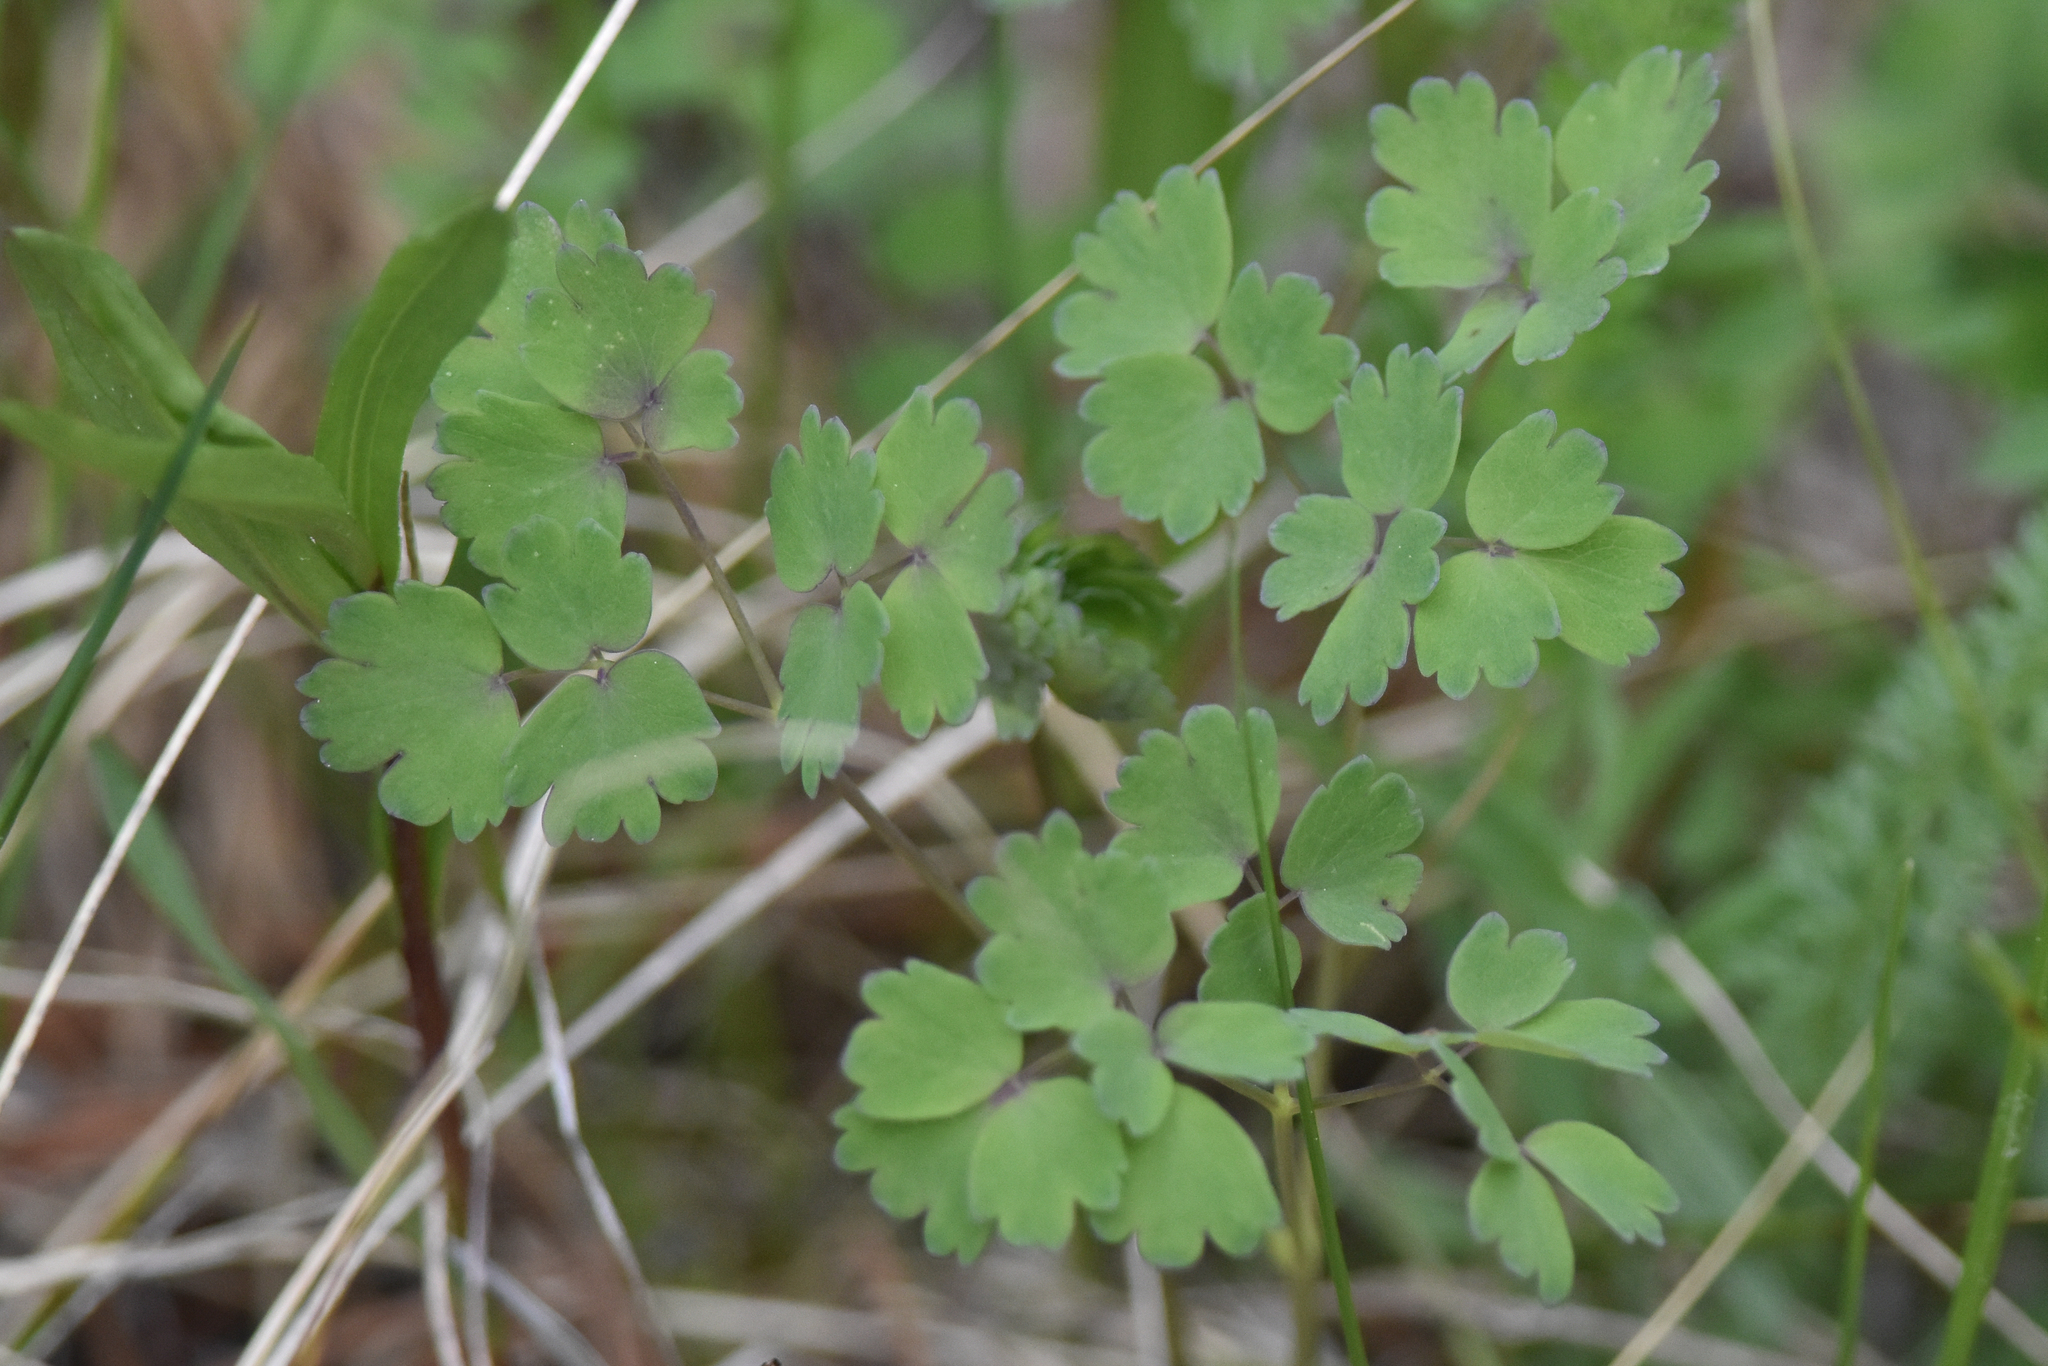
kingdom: Plantae
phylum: Tracheophyta
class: Magnoliopsida
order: Ranunculales
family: Ranunculaceae
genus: Thalictrum
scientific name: Thalictrum occidentale
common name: Western meadow-rue
